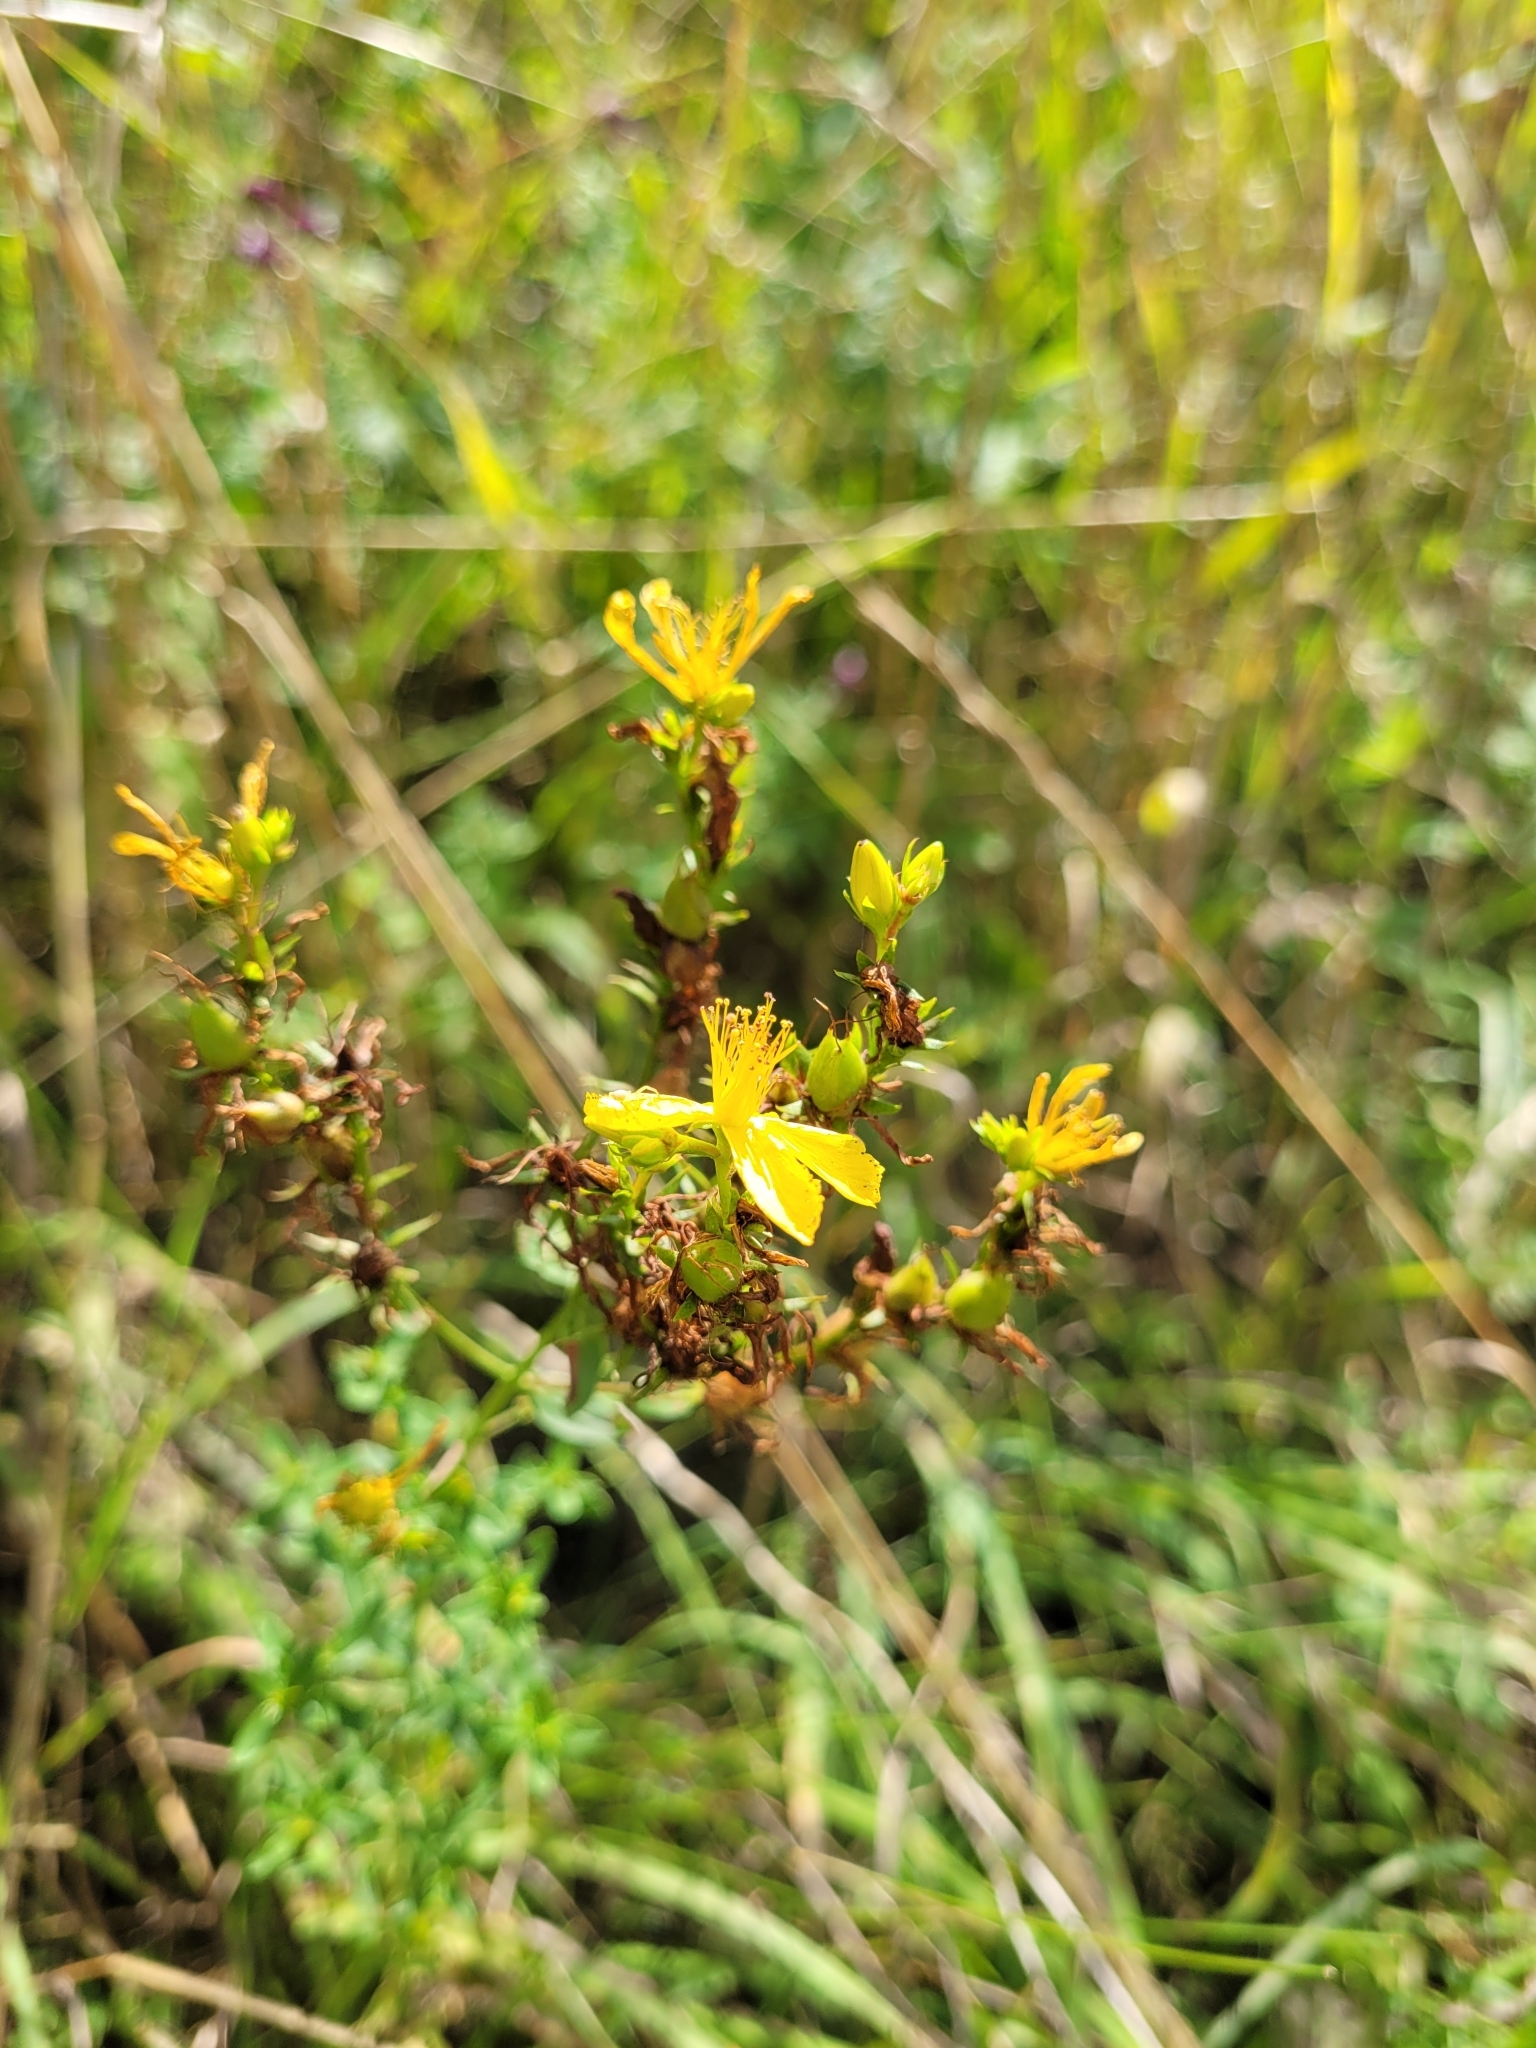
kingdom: Plantae
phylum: Tracheophyta
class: Magnoliopsida
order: Malpighiales
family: Hypericaceae
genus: Hypericum
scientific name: Hypericum perforatum
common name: Common st. johnswort
